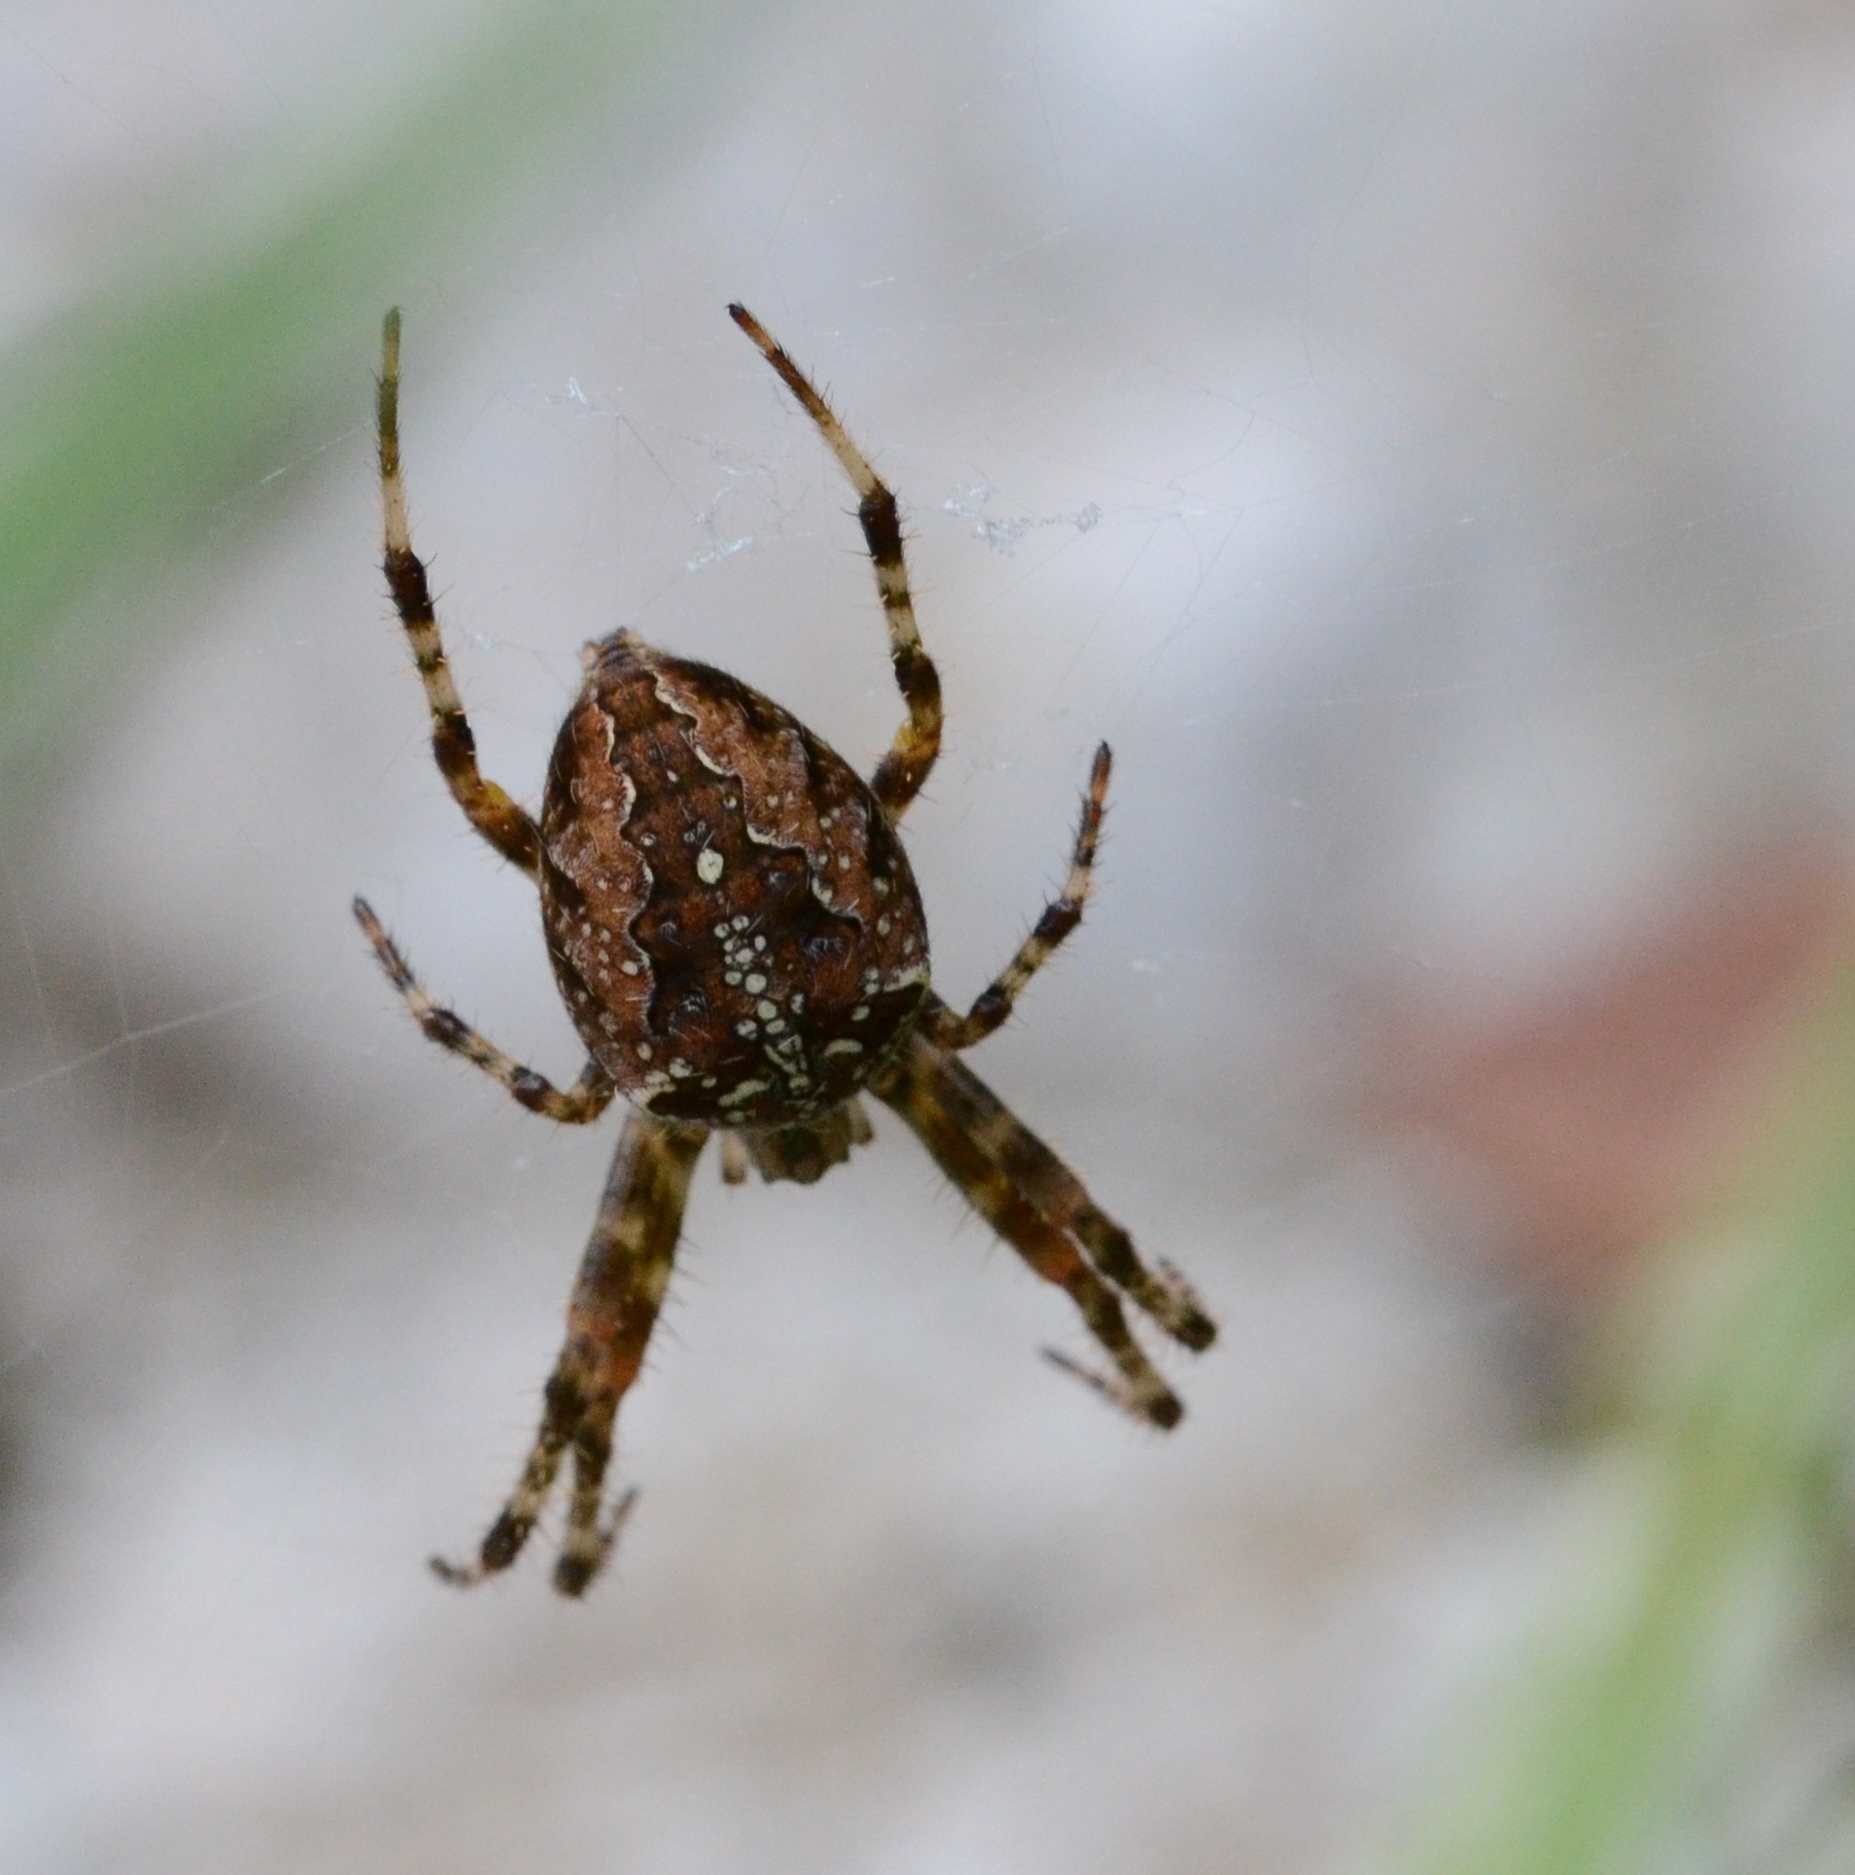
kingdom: Animalia
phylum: Arthropoda
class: Arachnida
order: Araneae
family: Araneidae
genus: Araneus
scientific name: Araneus diadematus
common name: Cross orbweaver
